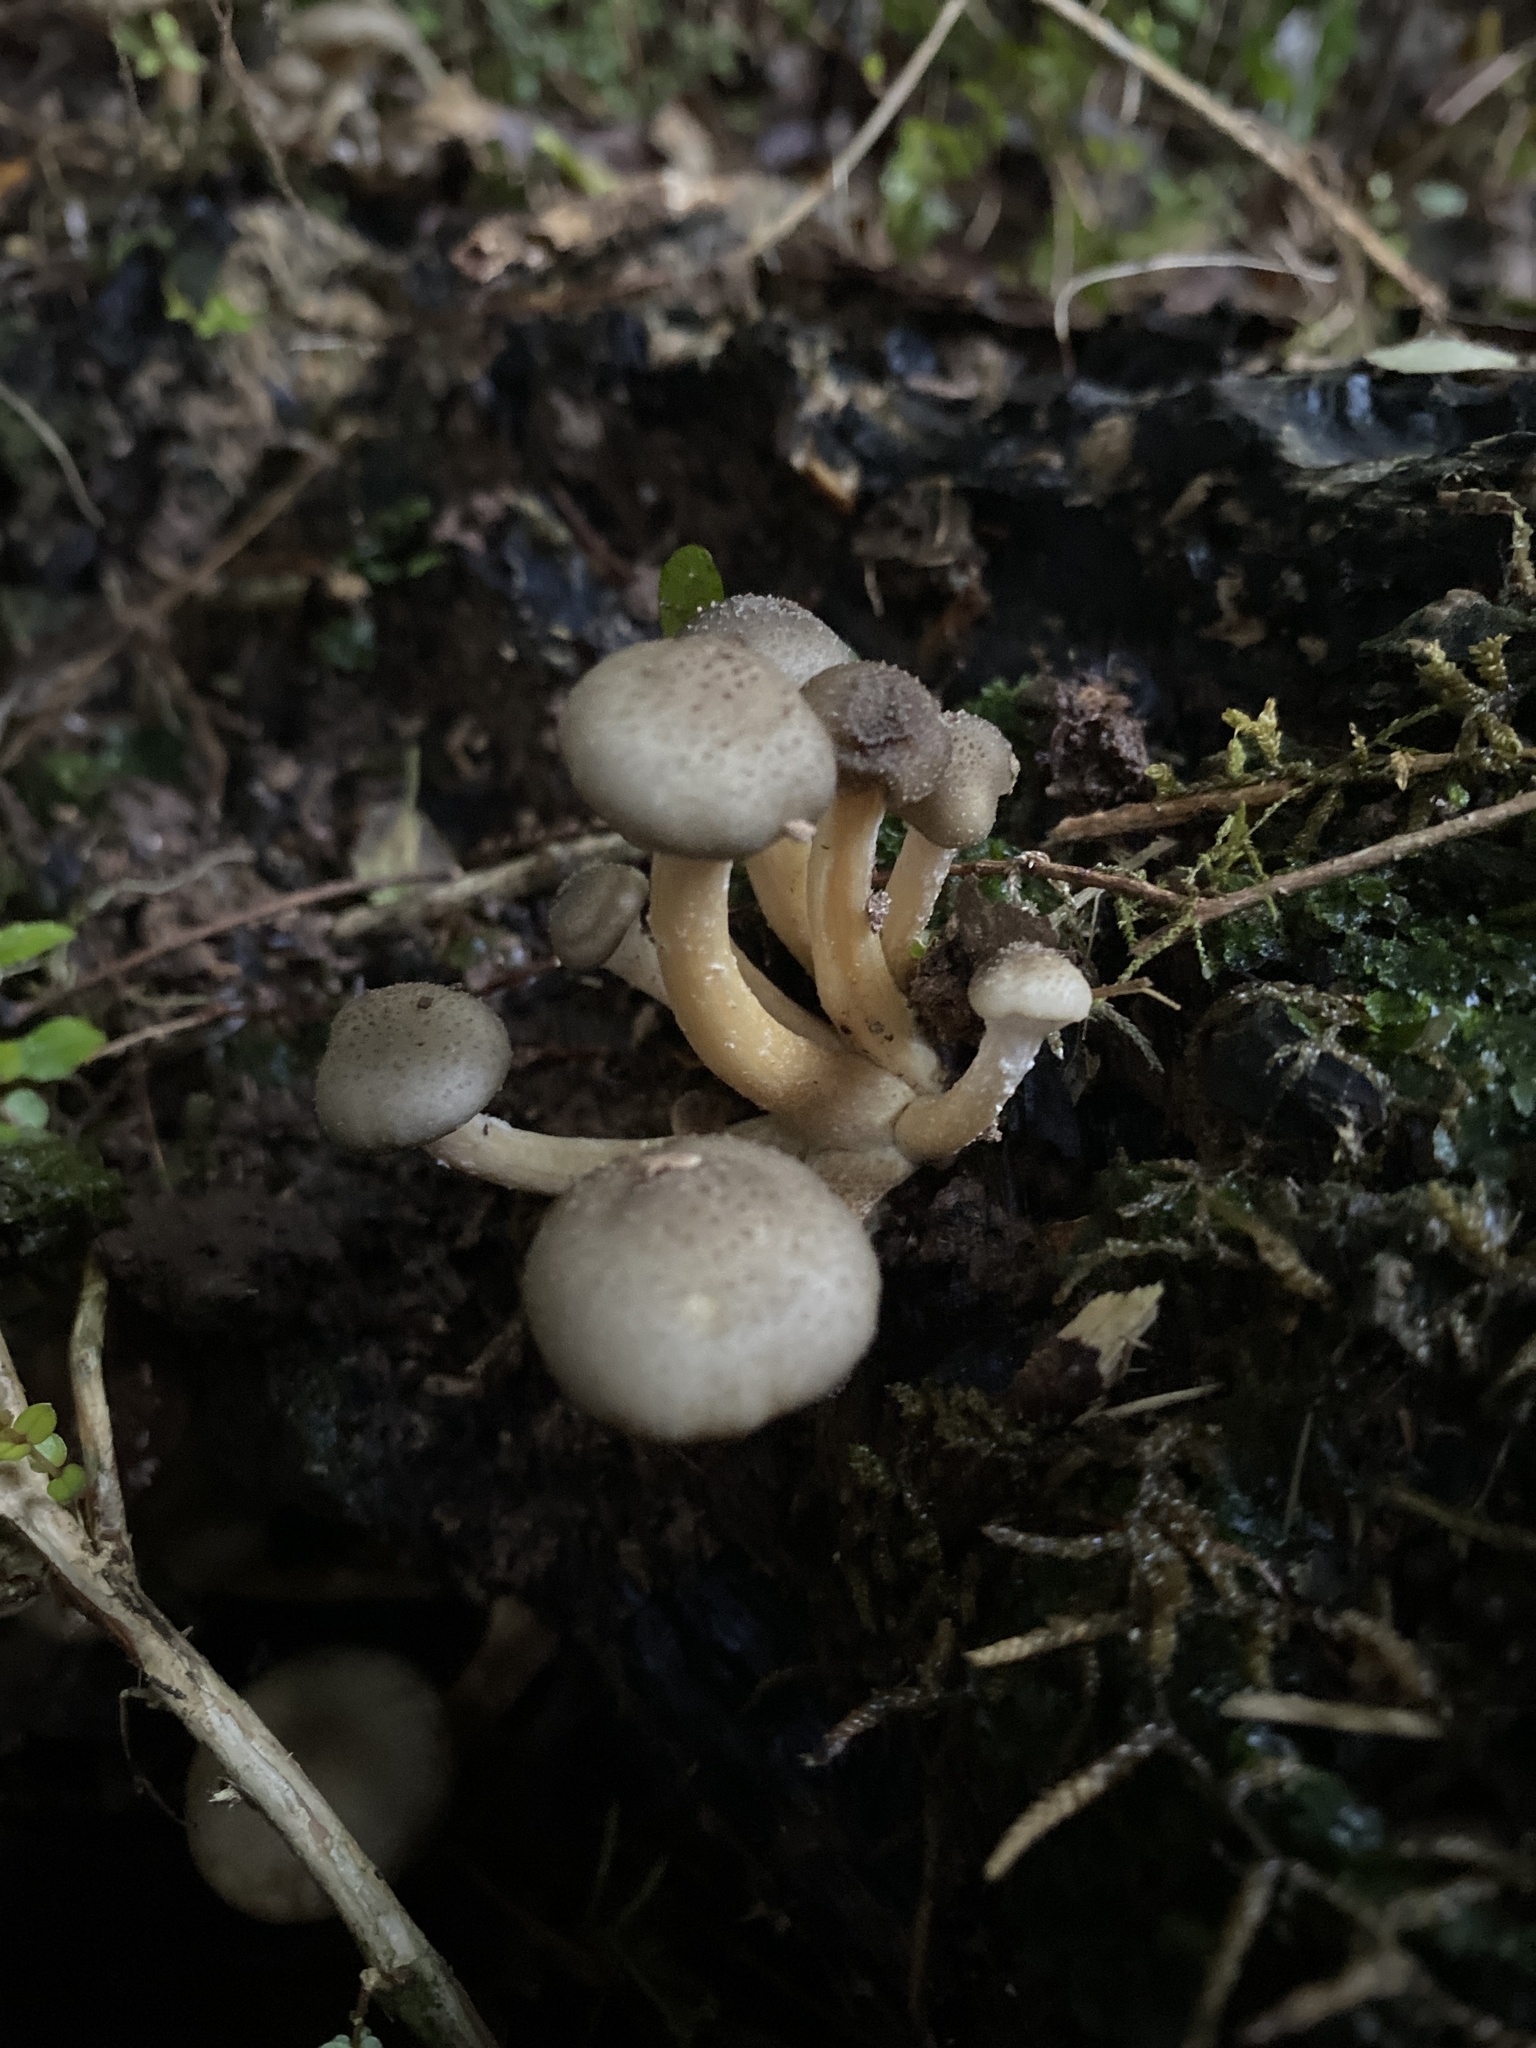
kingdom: Fungi
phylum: Basidiomycota
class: Agaricomycetes
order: Agaricales
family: Physalacriaceae
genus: Armillaria
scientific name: Armillaria novae-zelandiae
